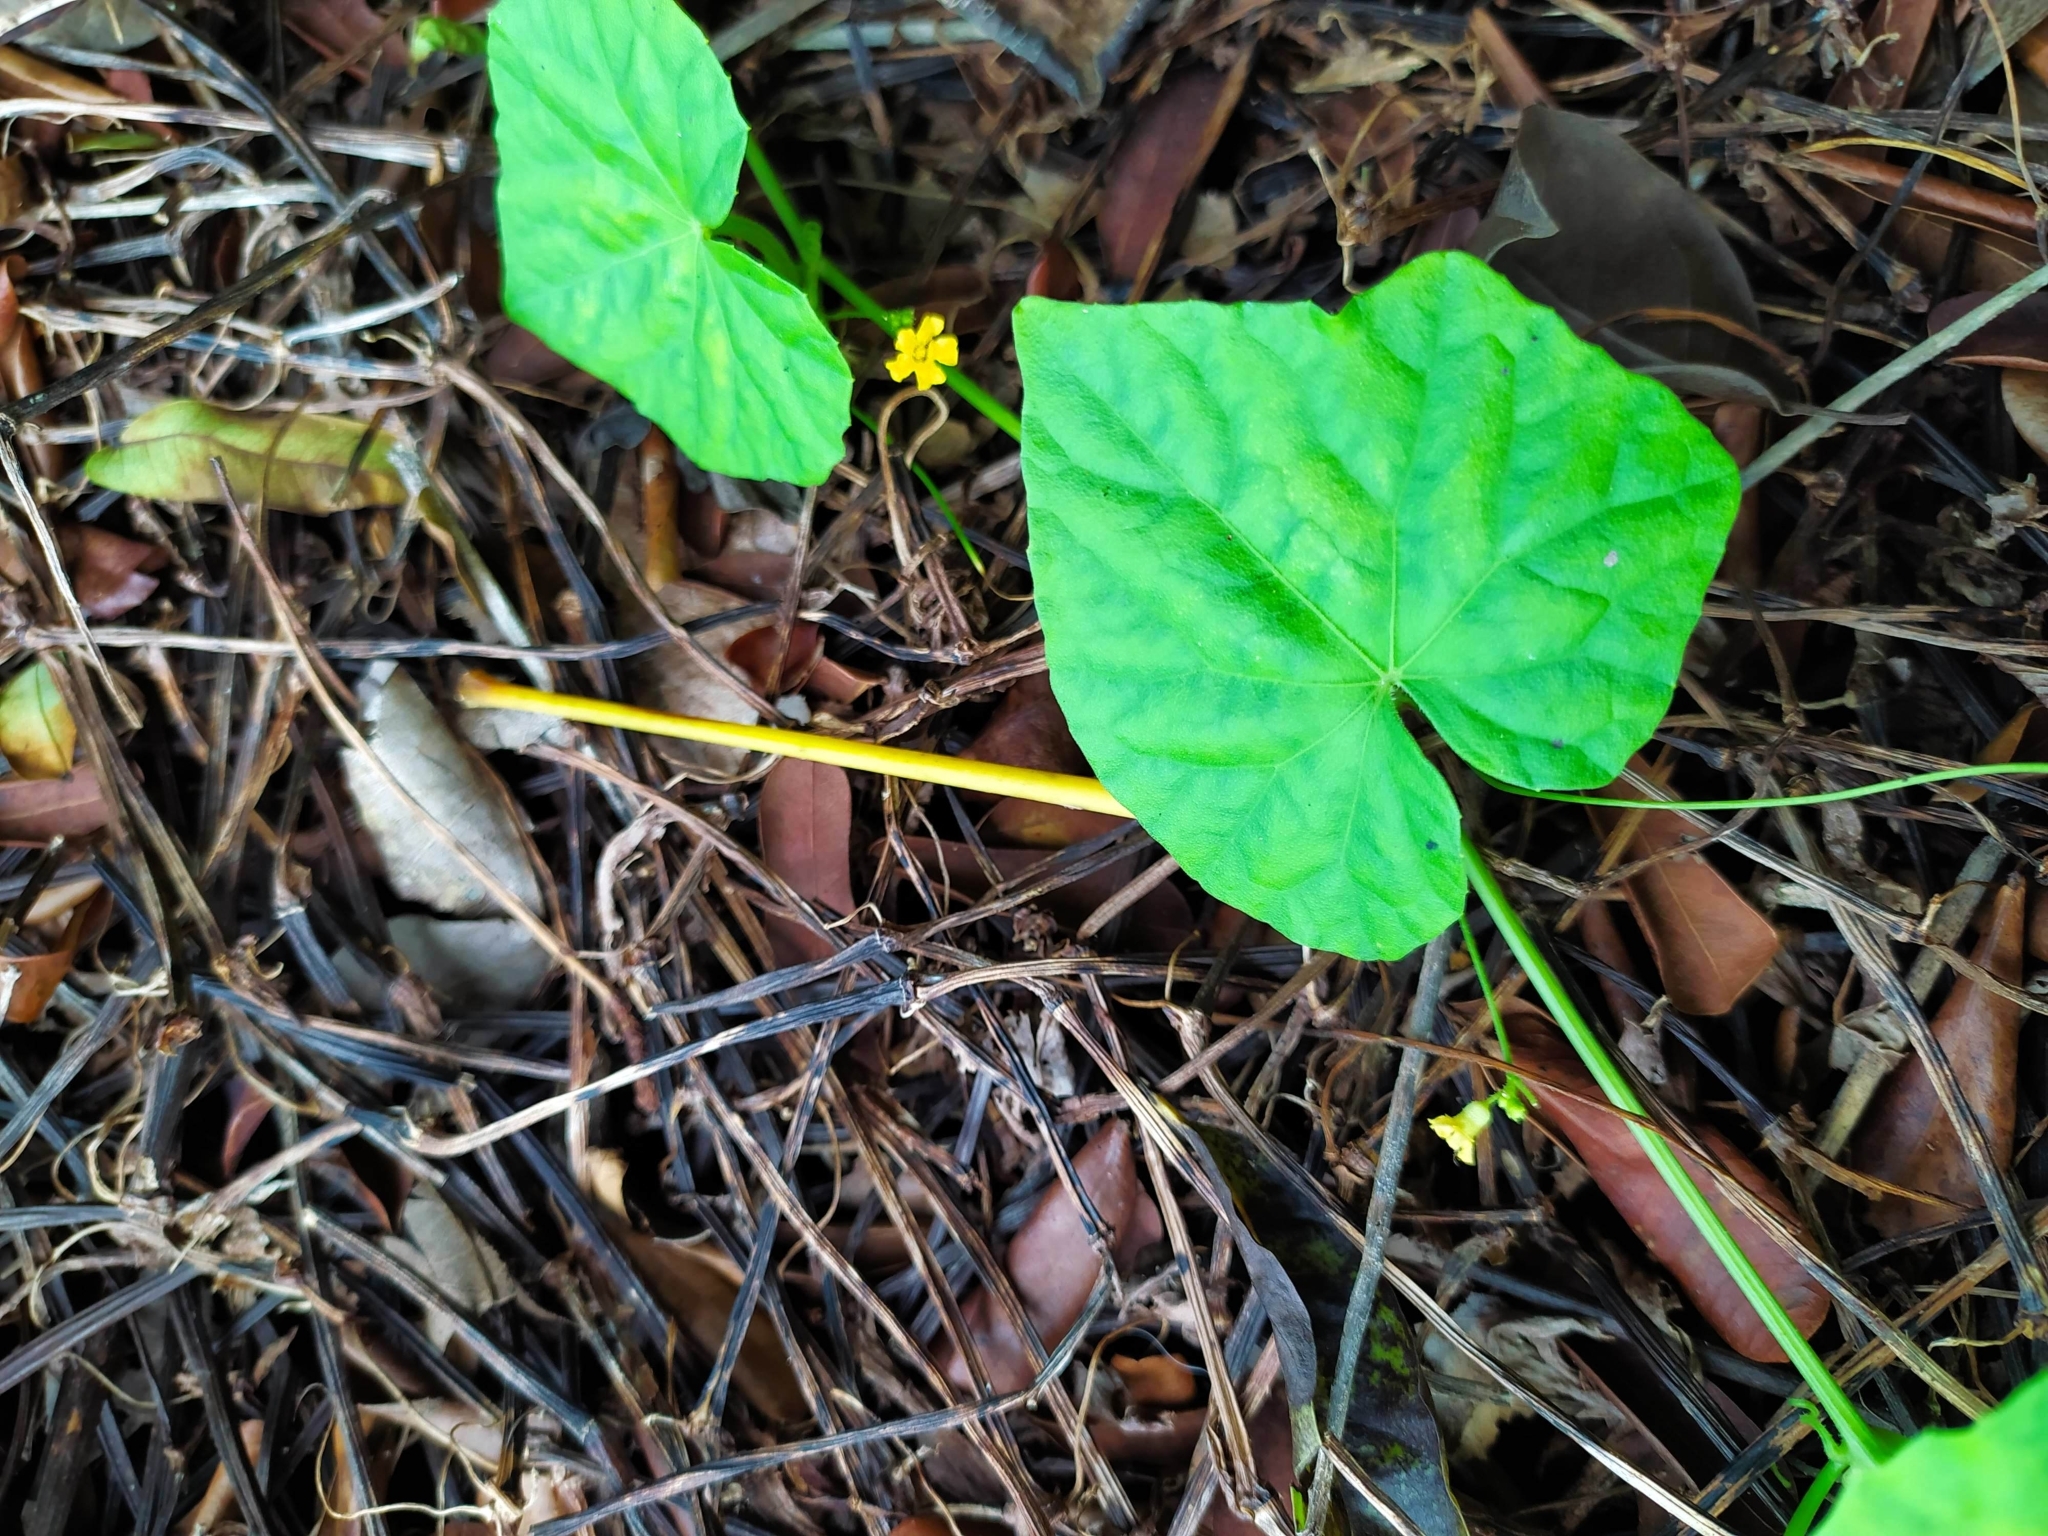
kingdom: Plantae
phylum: Tracheophyta
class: Magnoliopsida
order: Cucurbitales
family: Cucurbitaceae
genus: Melothria
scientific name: Melothria pendula
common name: Creeping-cucumber
